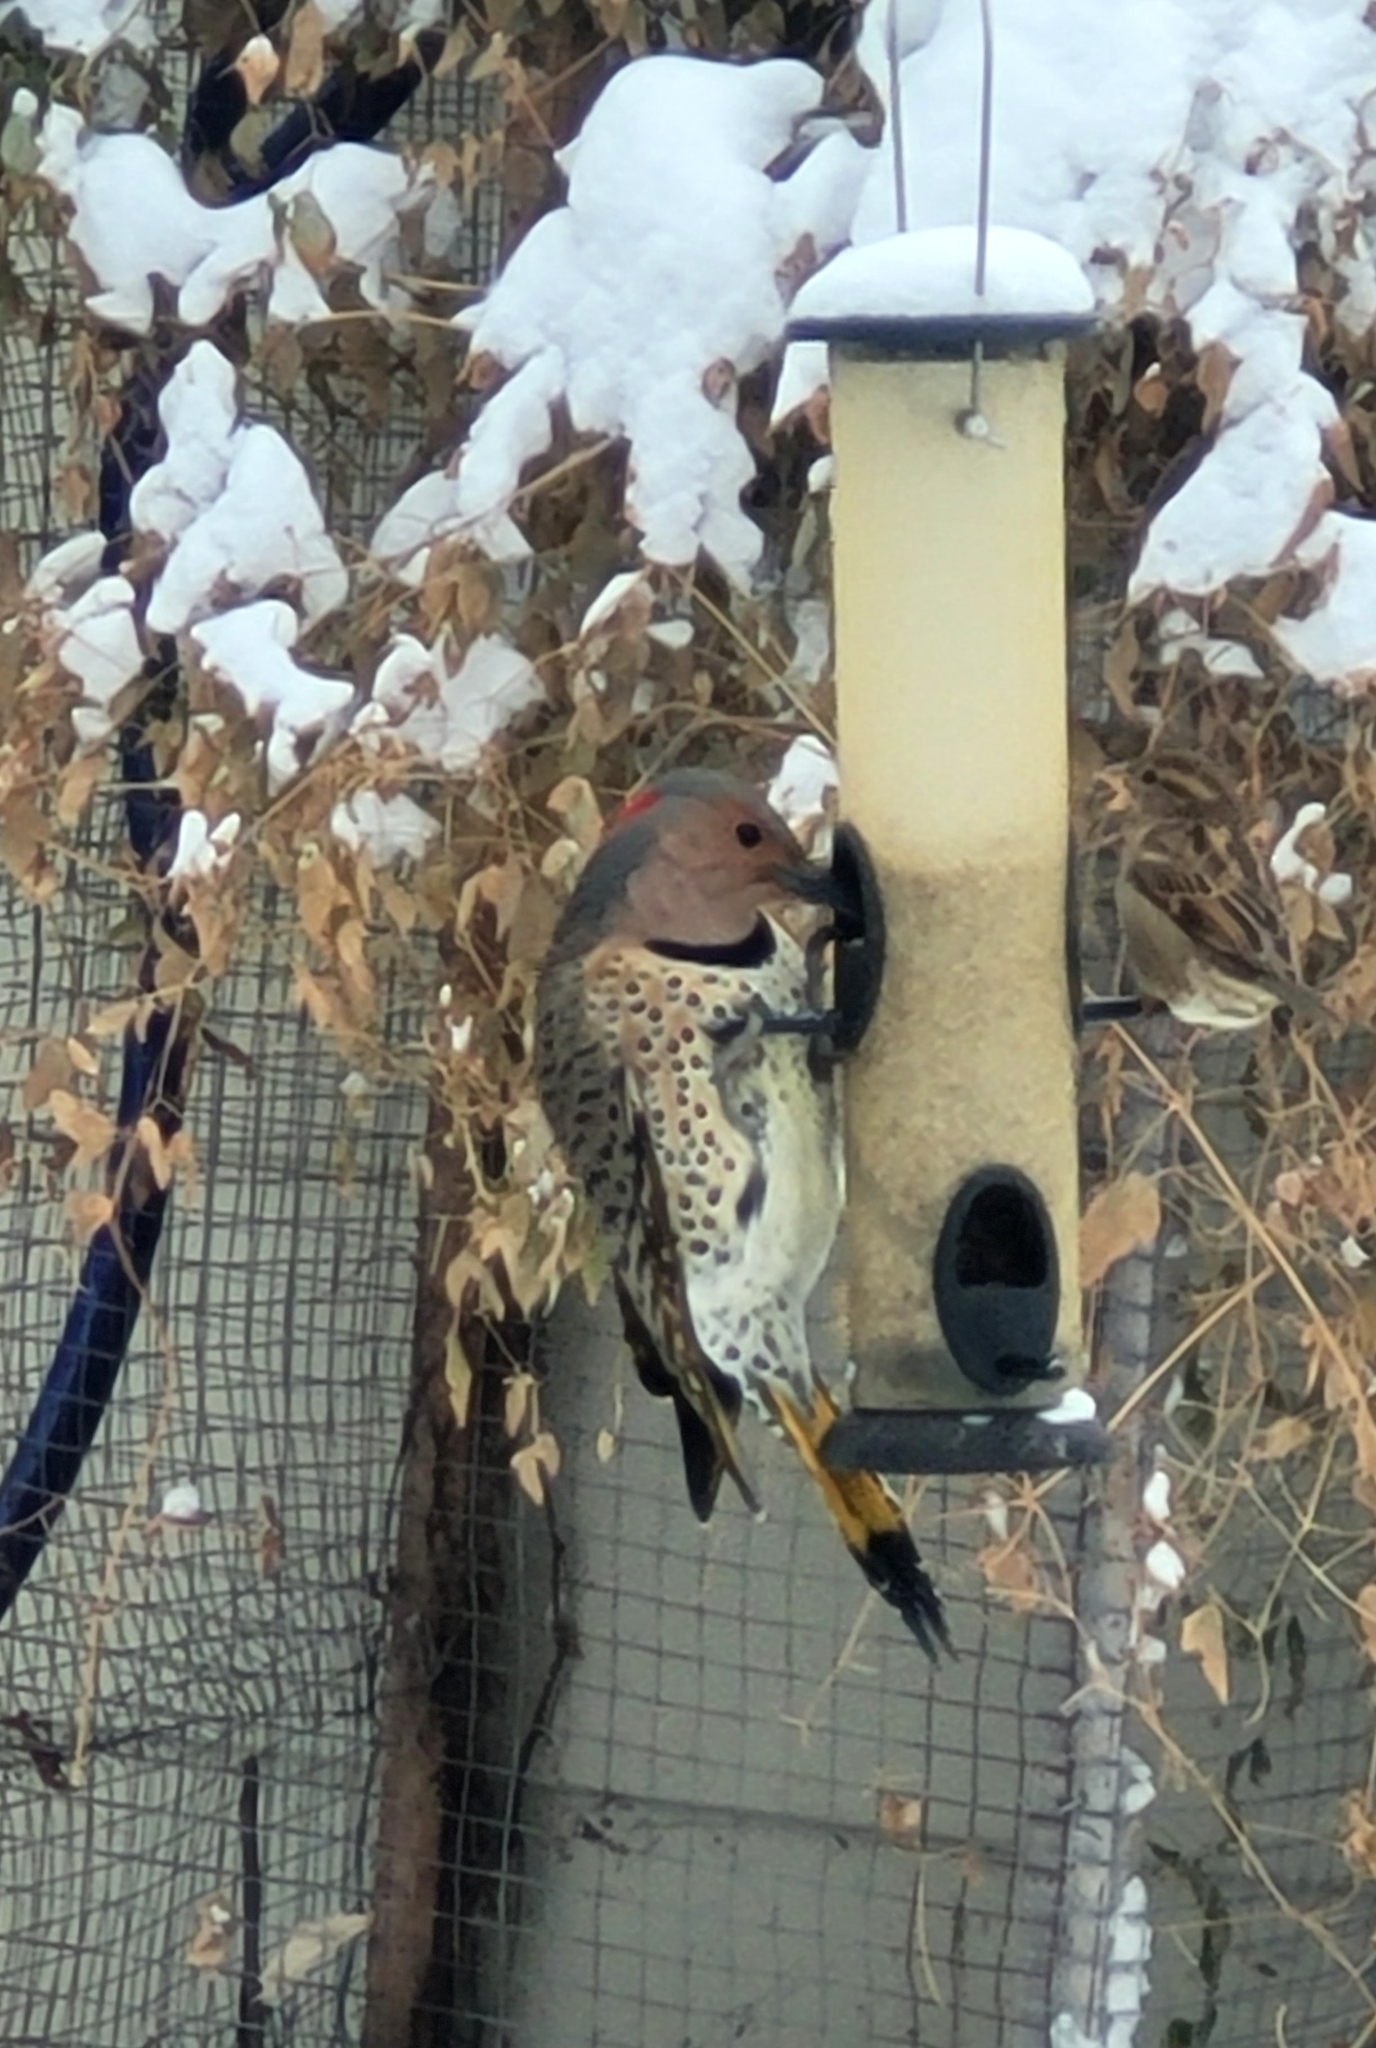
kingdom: Animalia
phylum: Chordata
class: Aves
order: Piciformes
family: Picidae
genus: Colaptes
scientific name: Colaptes auratus
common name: Northern flicker
